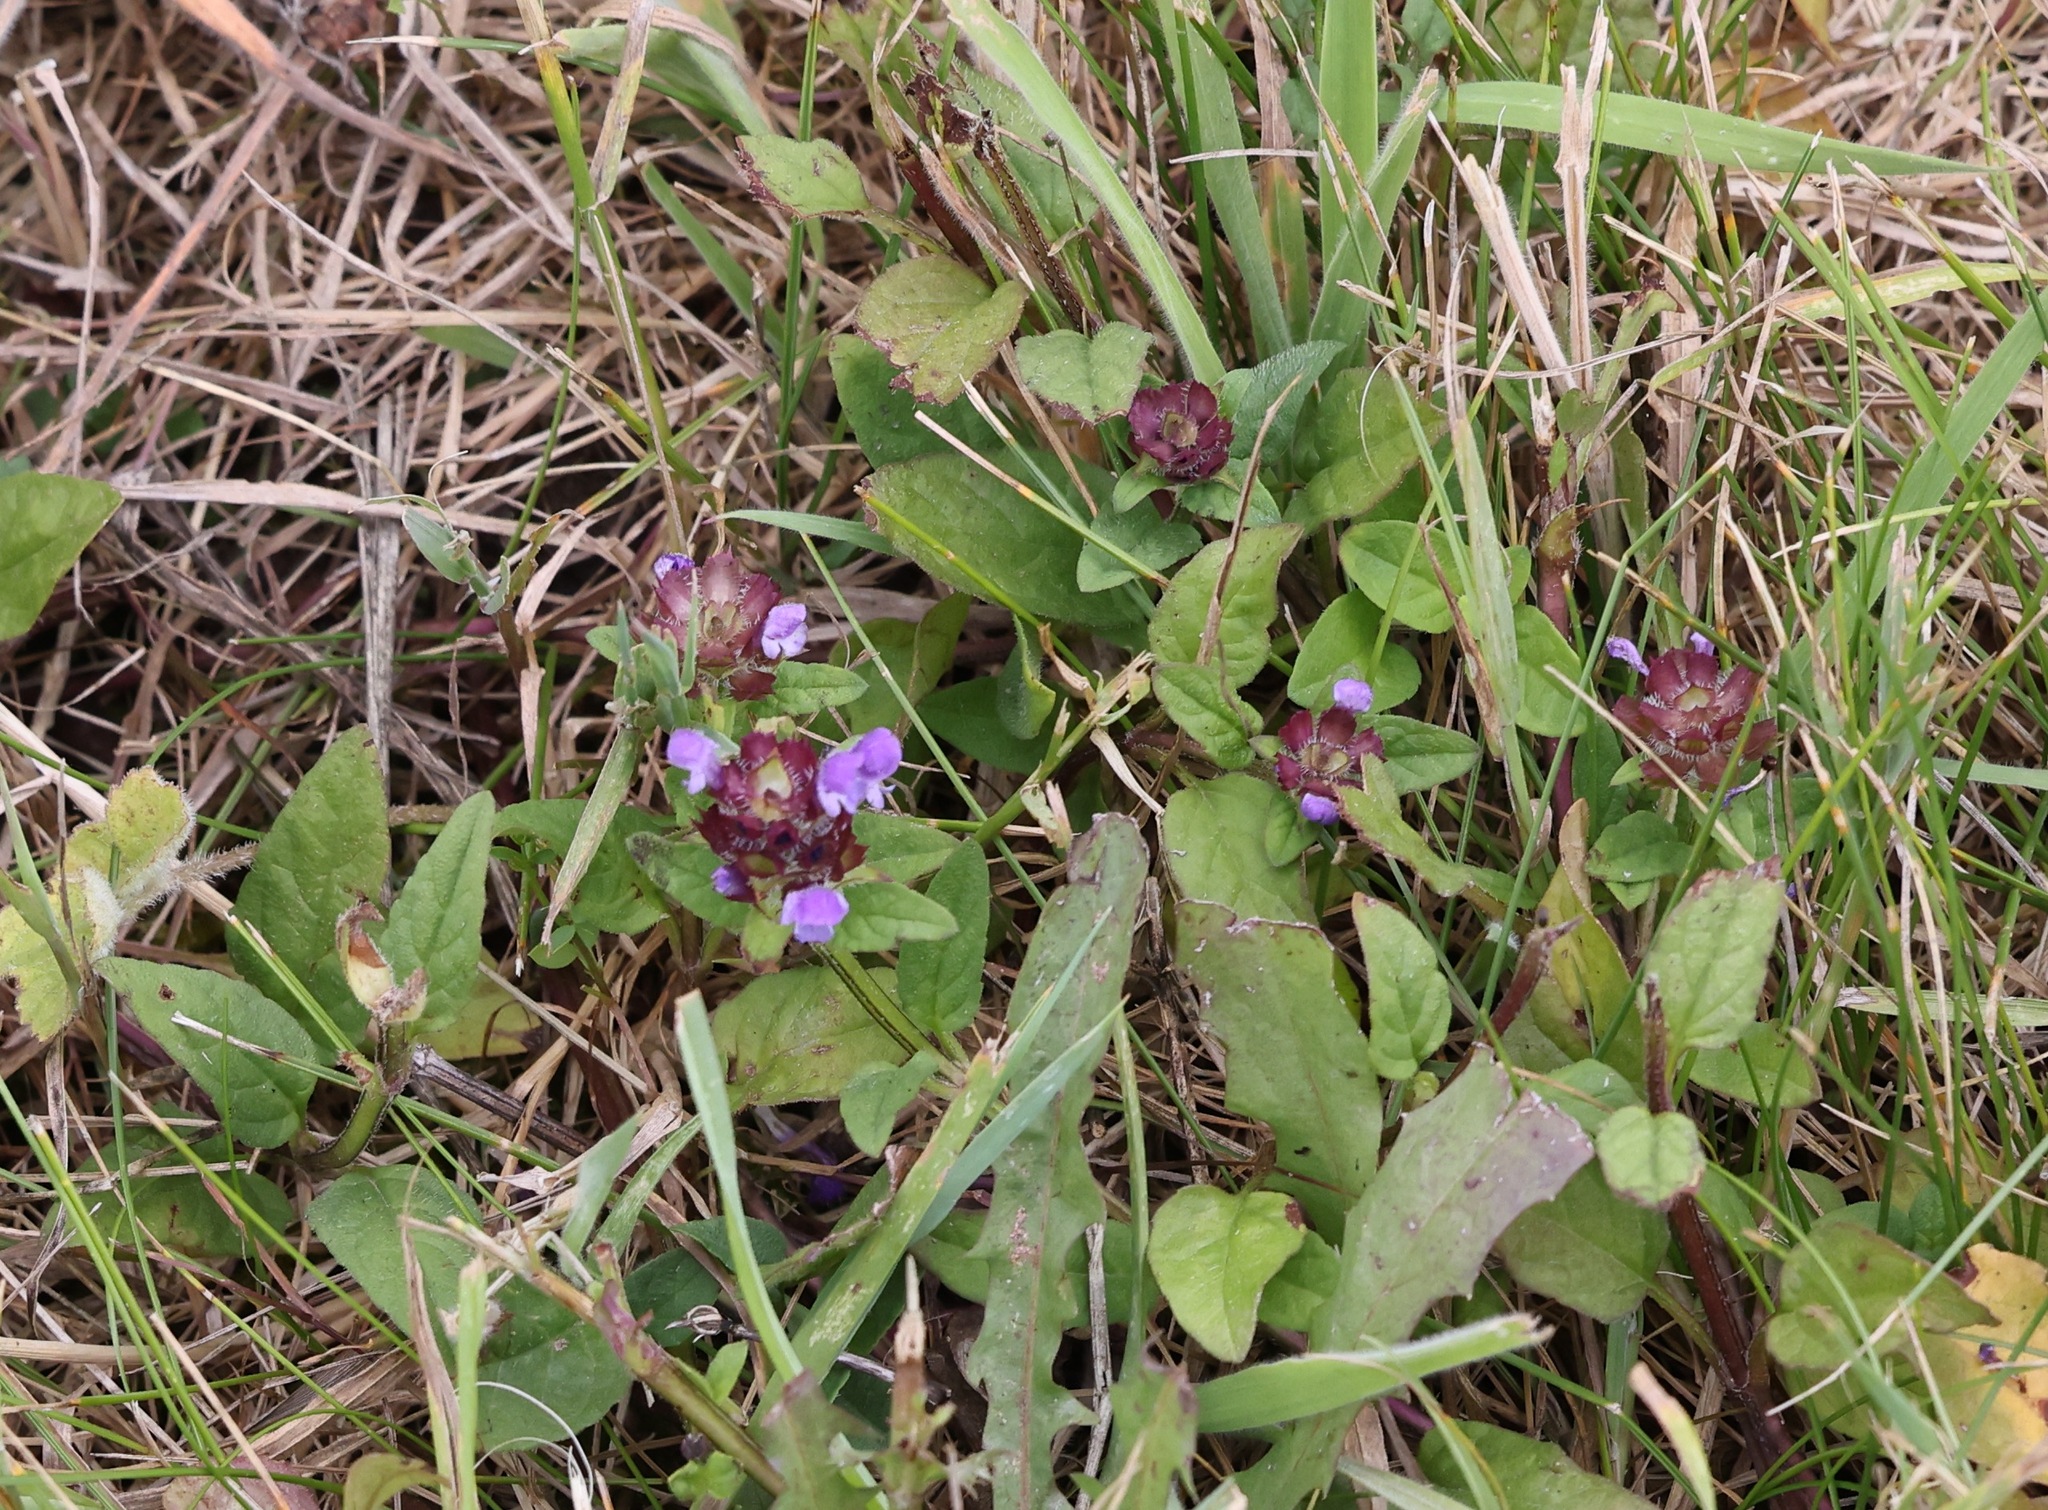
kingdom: Plantae
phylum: Tracheophyta
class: Magnoliopsida
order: Lamiales
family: Lamiaceae
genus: Prunella
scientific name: Prunella vulgaris
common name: Heal-all
